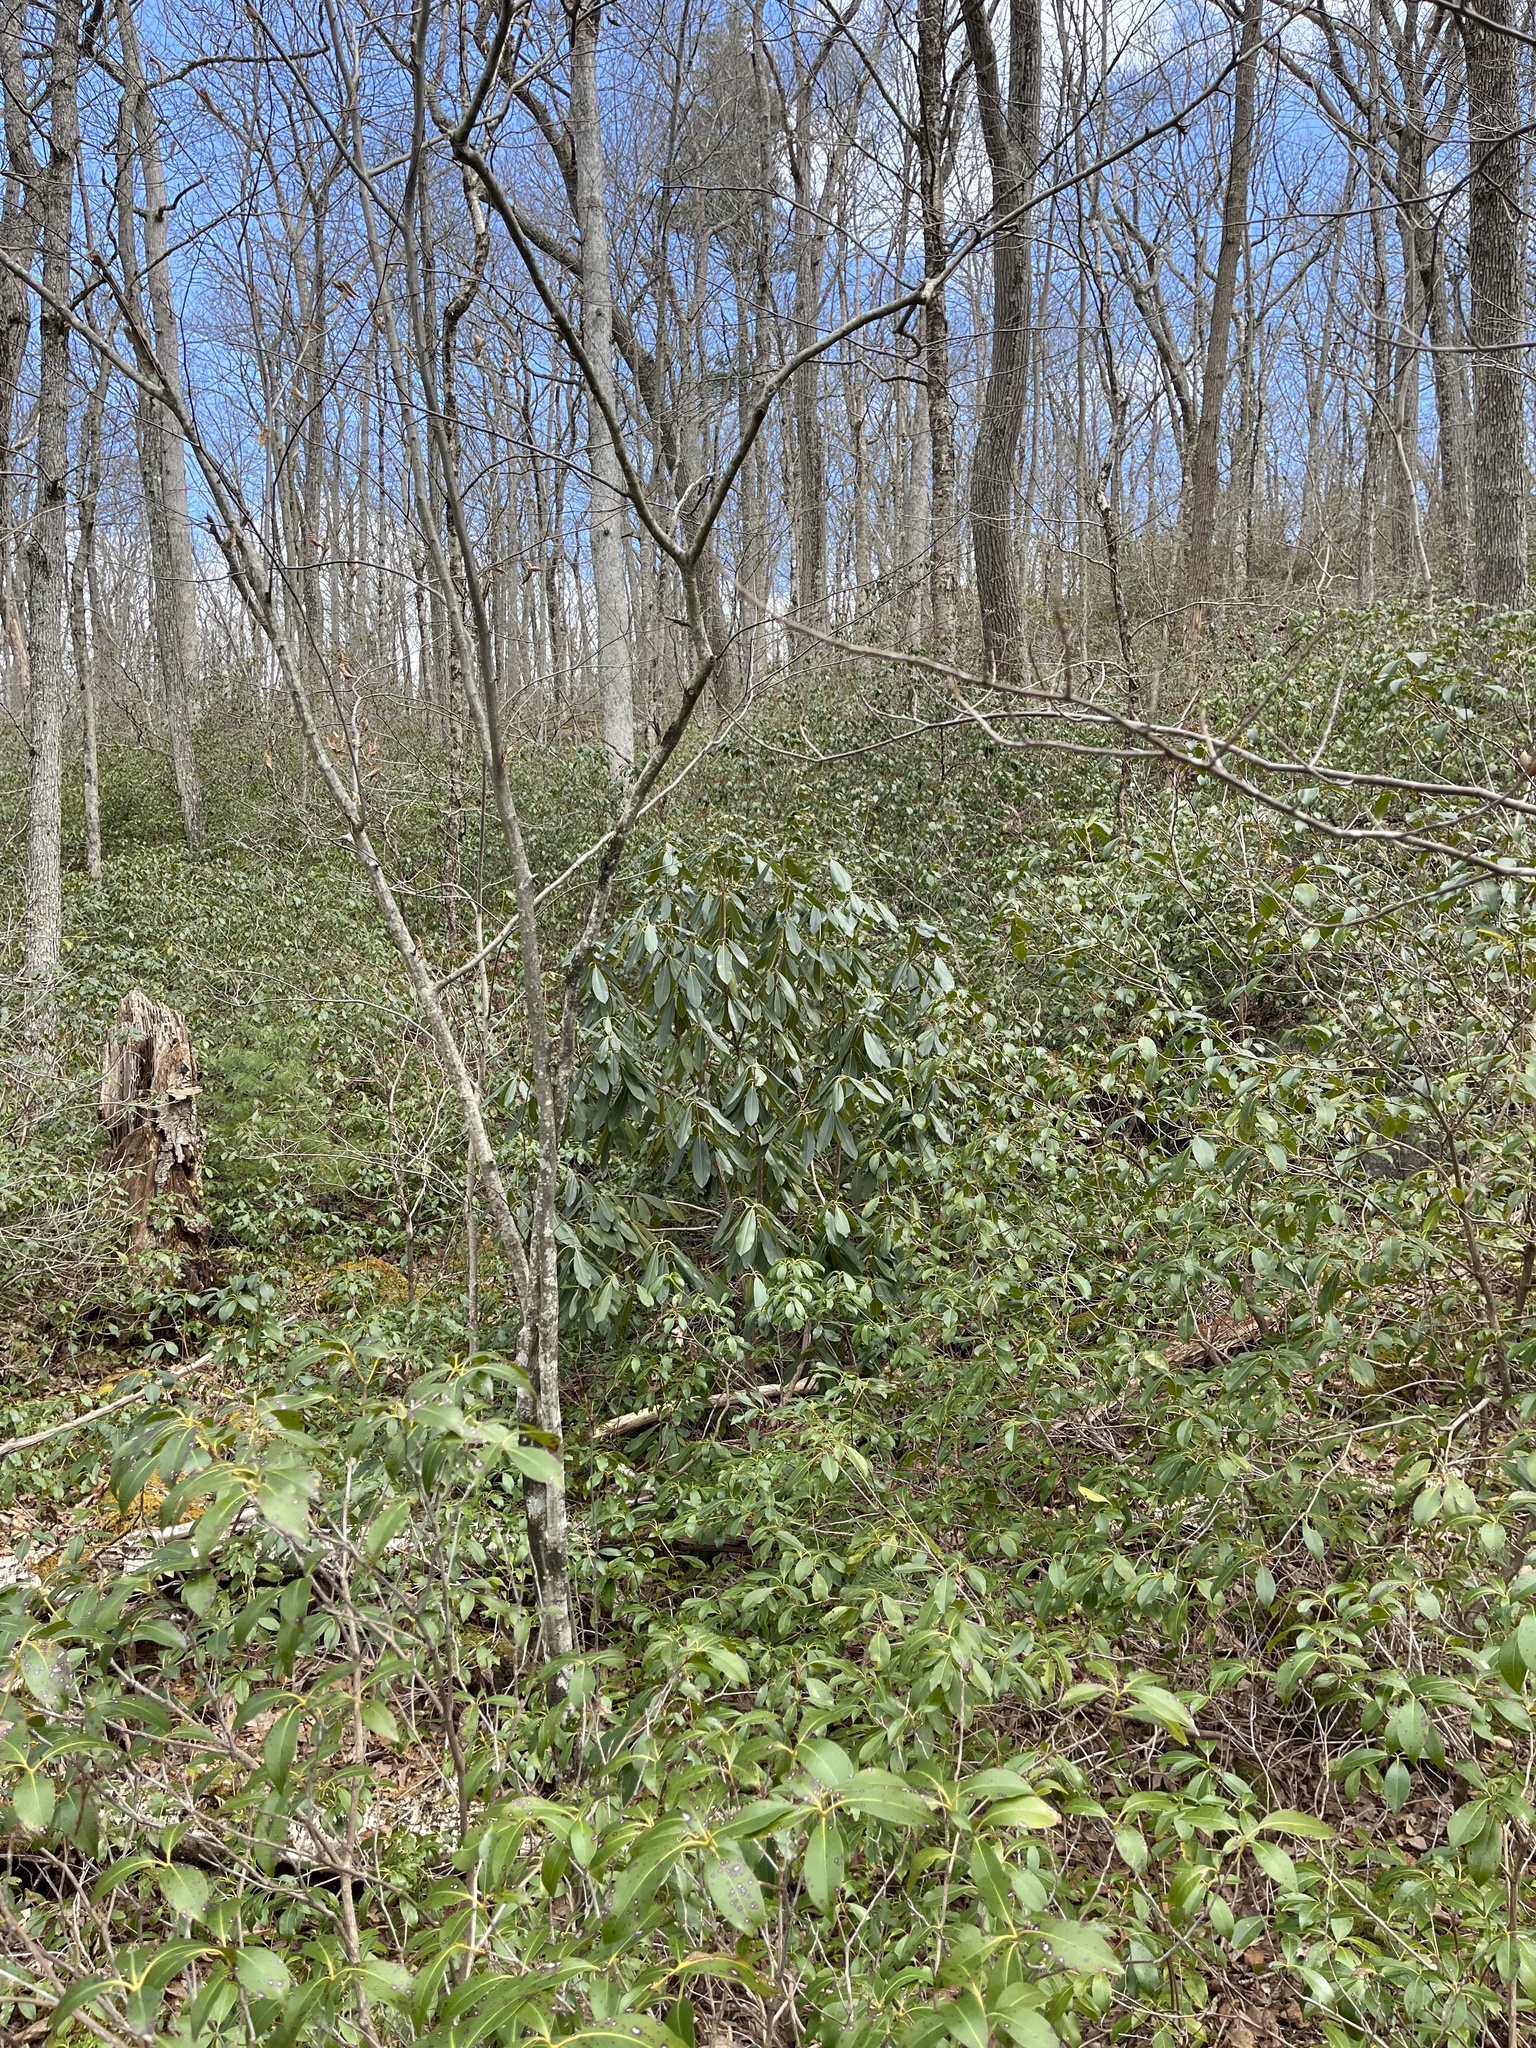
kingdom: Plantae
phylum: Tracheophyta
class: Magnoliopsida
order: Ericales
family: Ericaceae
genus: Rhododendron
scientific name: Rhododendron maximum
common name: Great rhododendron
